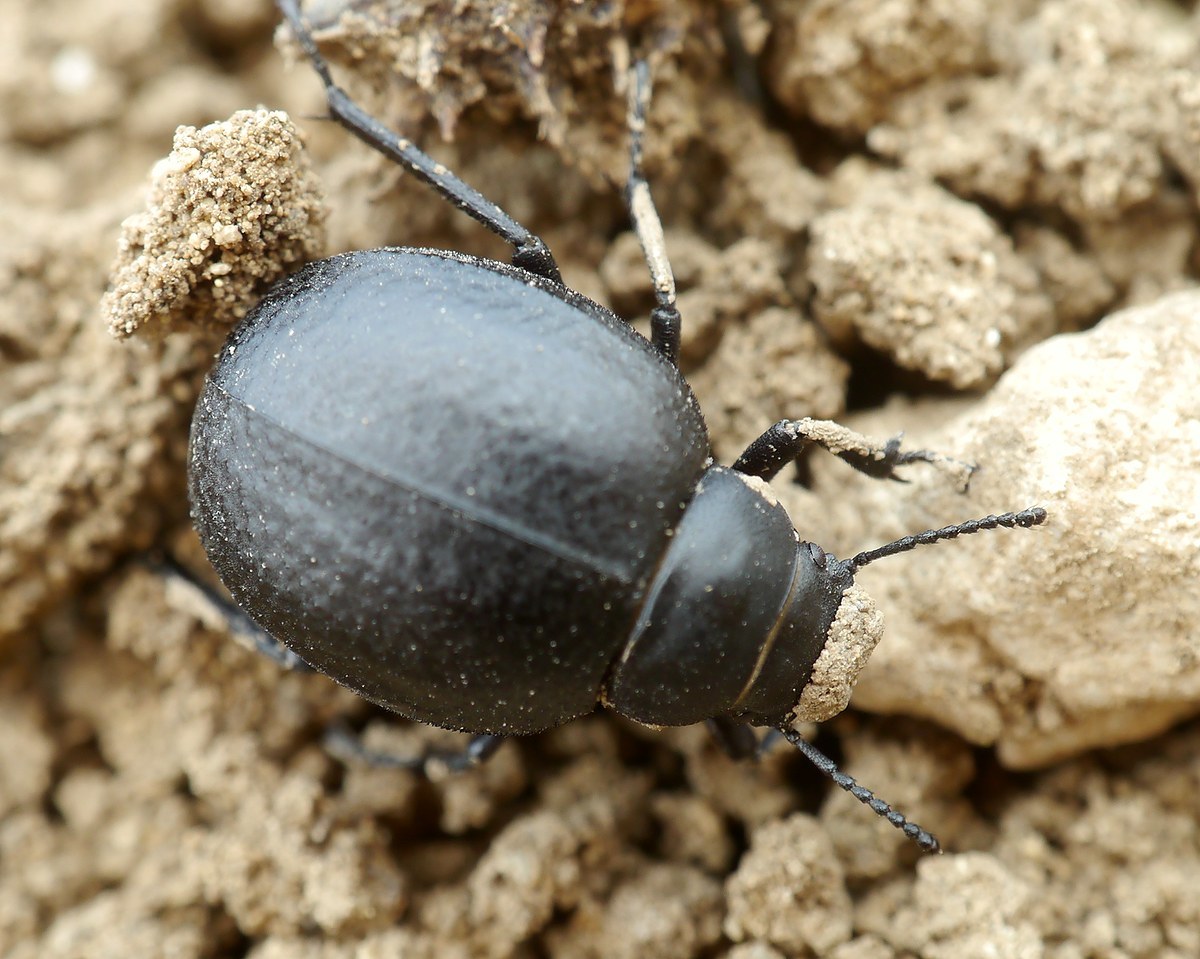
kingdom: Animalia
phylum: Arthropoda
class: Insecta
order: Coleoptera
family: Tenebrionidae
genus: Pimelia
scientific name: Pimelia subglobosa
